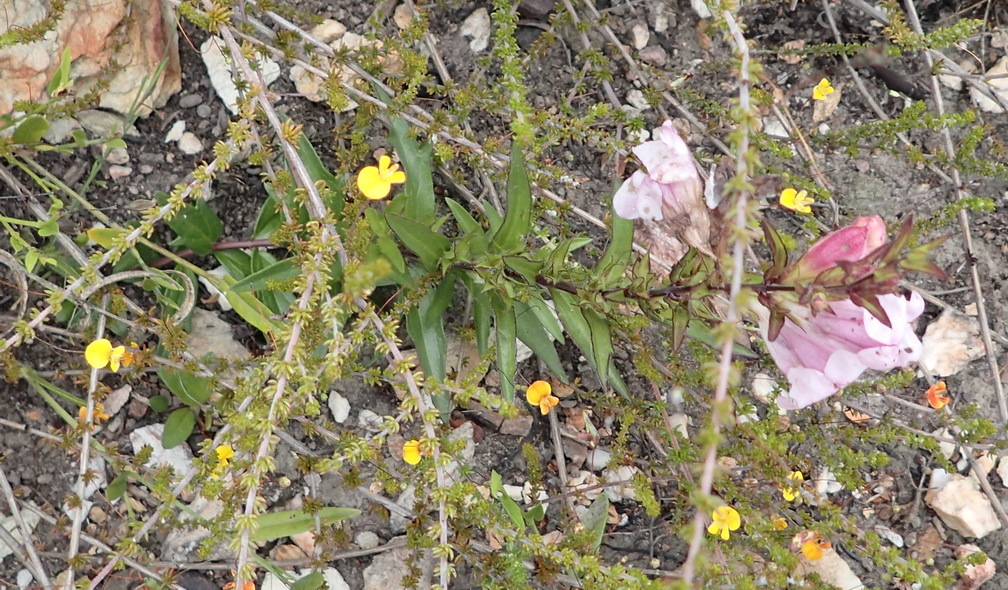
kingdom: Plantae
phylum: Tracheophyta
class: Magnoliopsida
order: Lamiales
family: Orobanchaceae
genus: Graderia
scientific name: Graderia scabra
